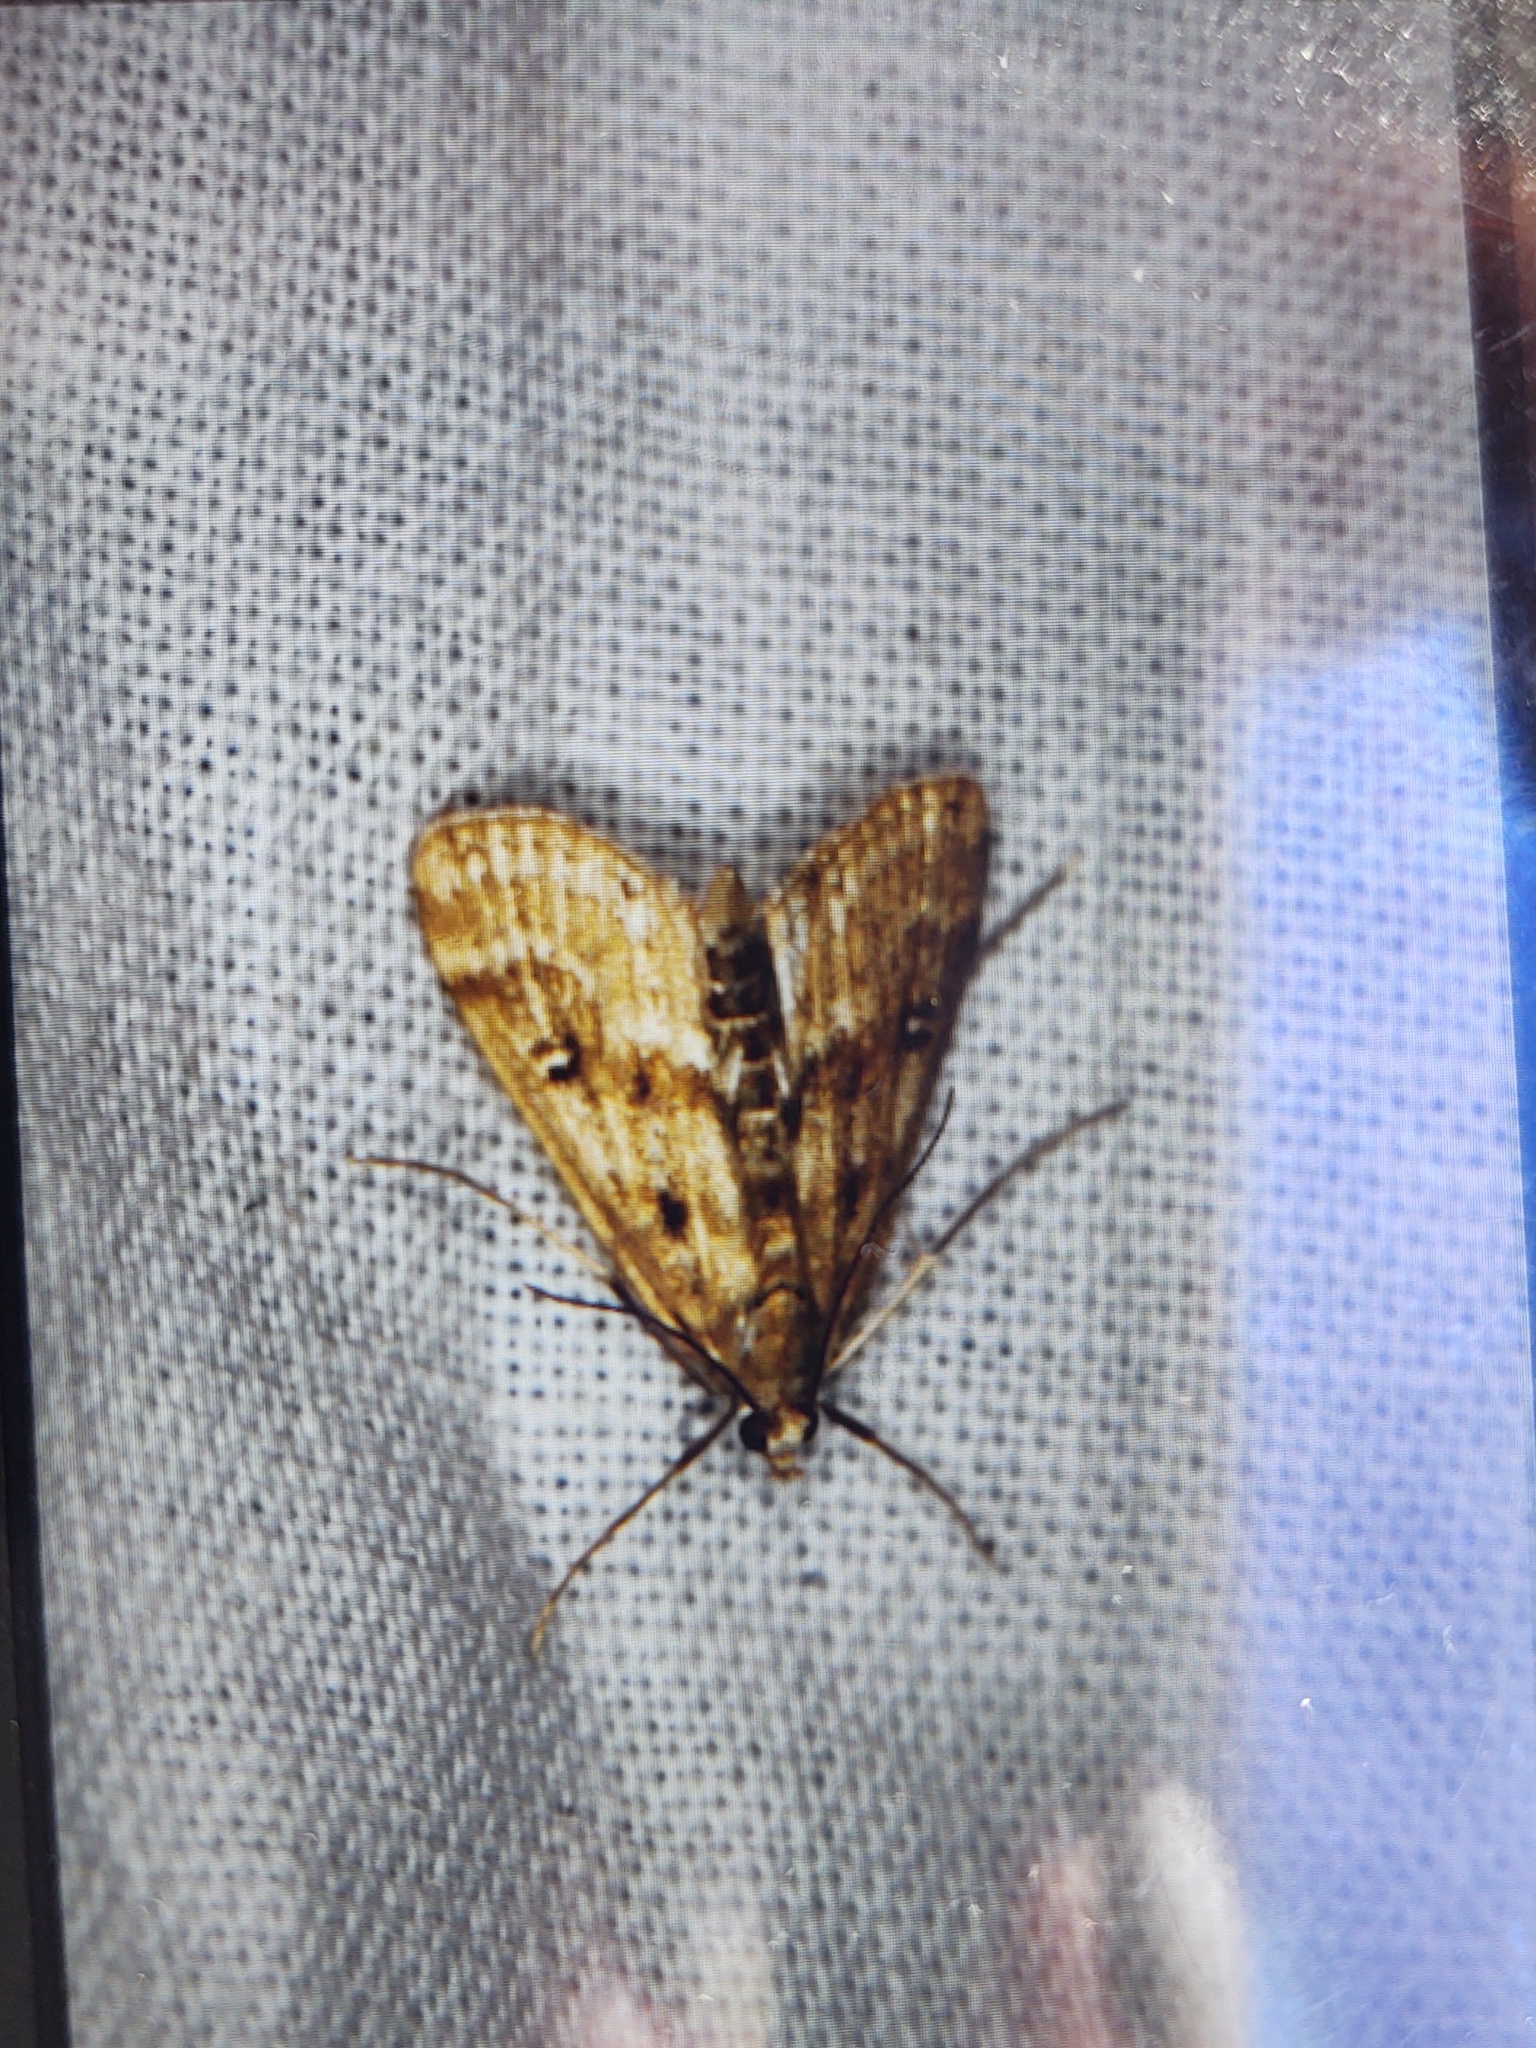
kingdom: Animalia
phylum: Arthropoda
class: Insecta
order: Lepidoptera
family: Crambidae
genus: Parapoynx
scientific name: Parapoynx stratiotata
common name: Ringed china-mark
